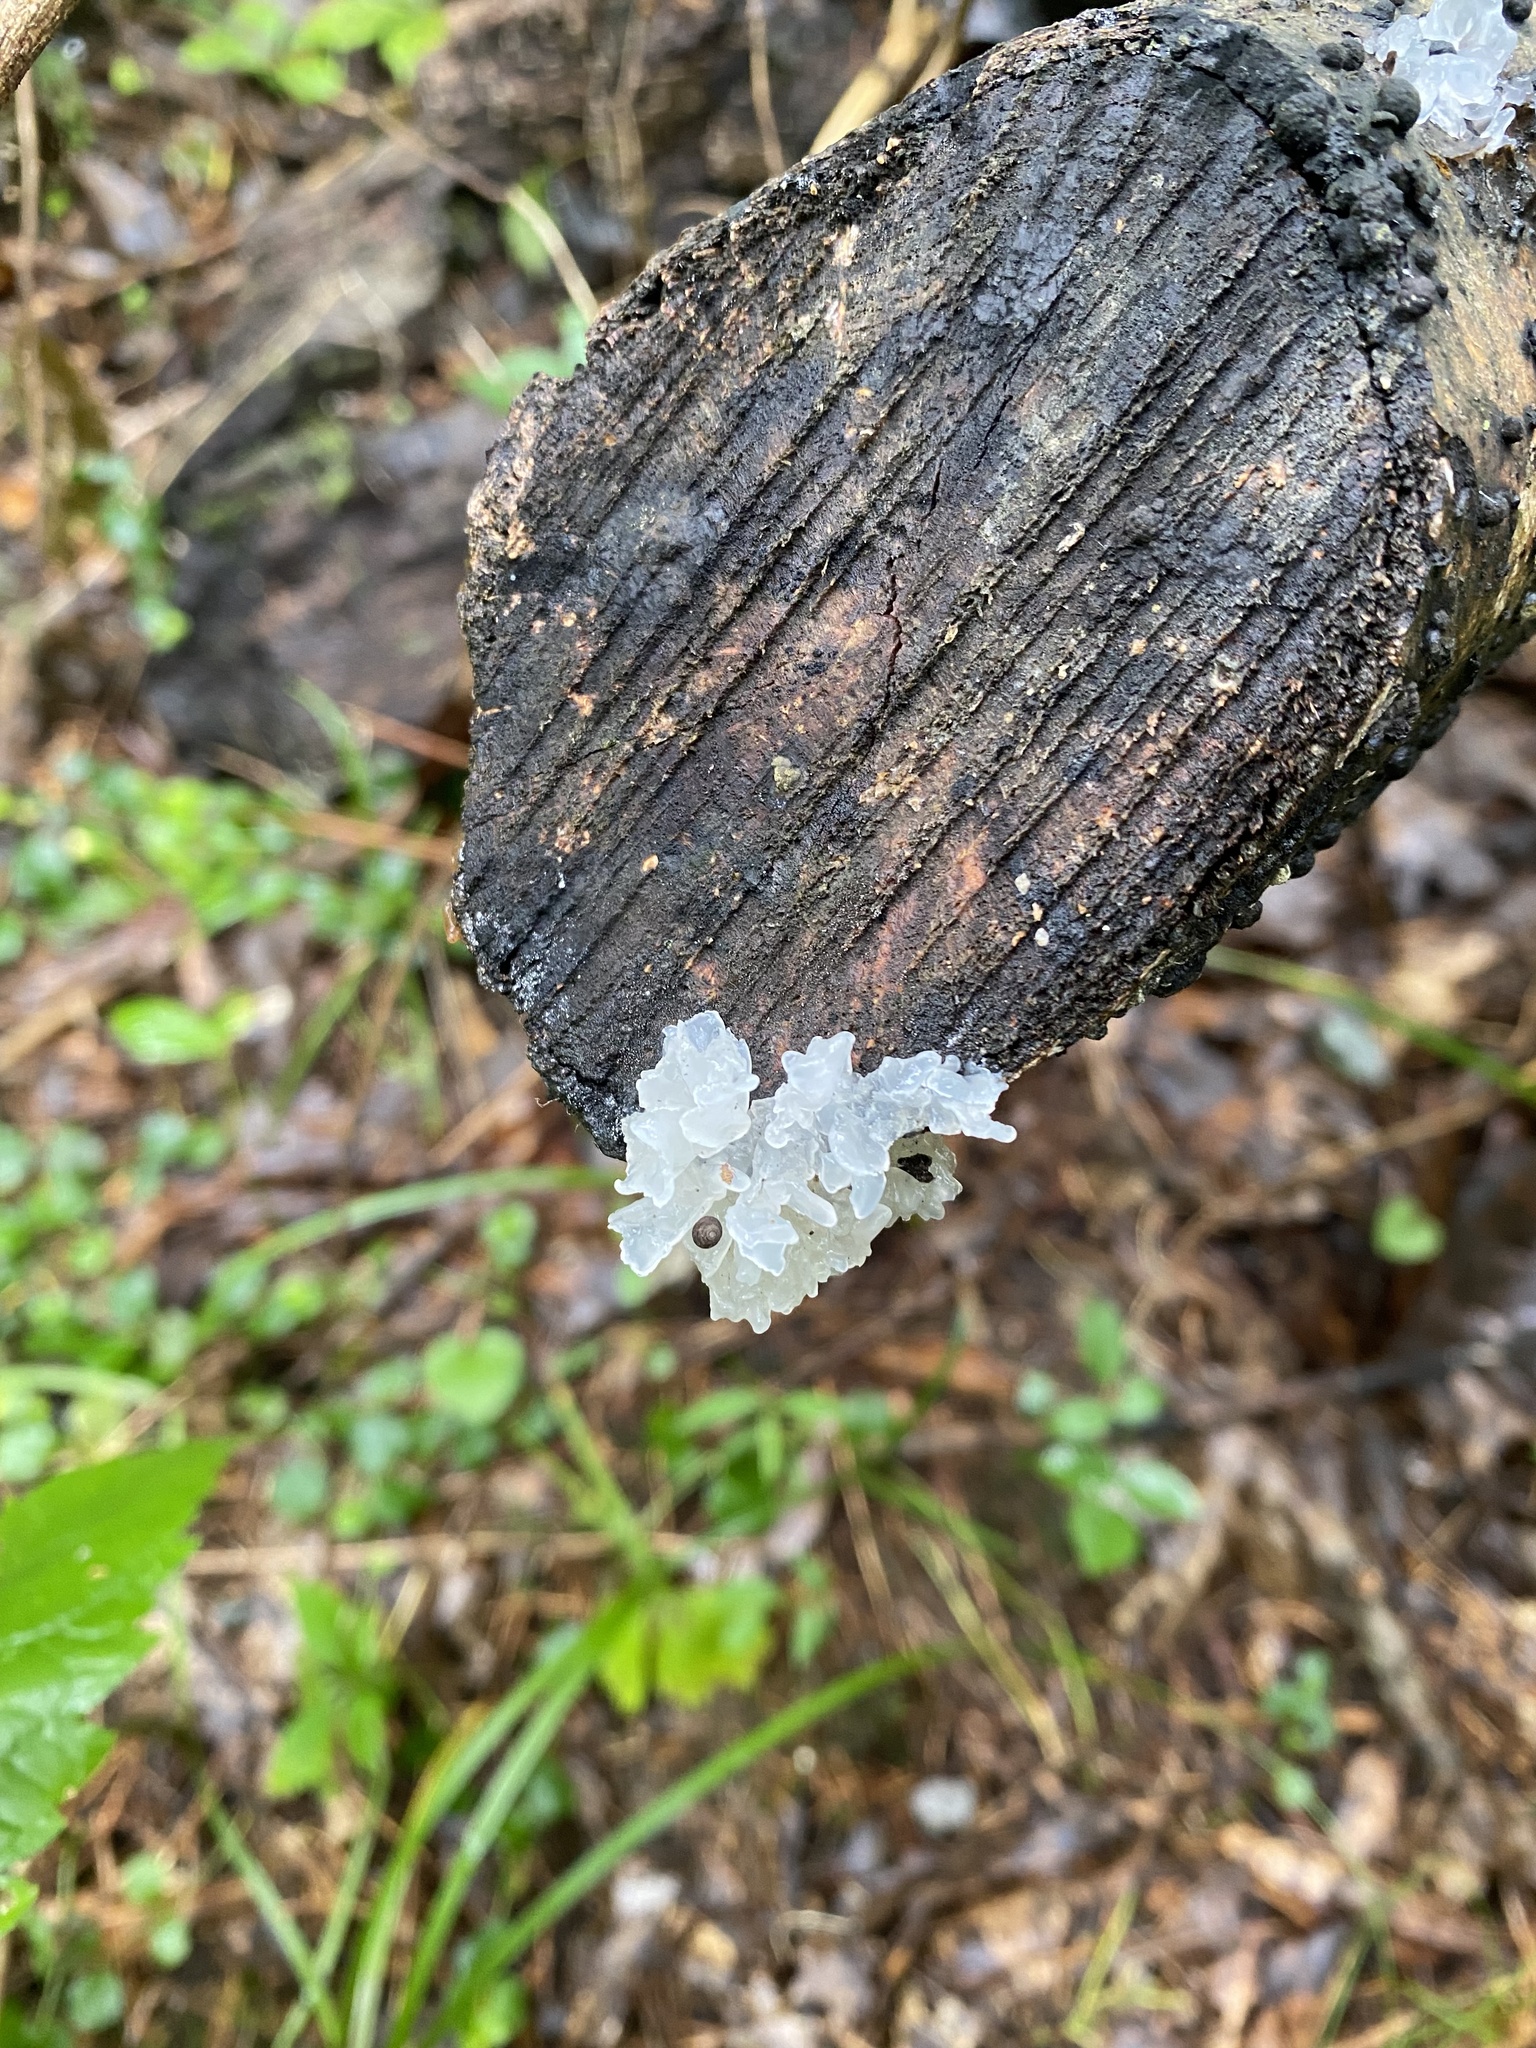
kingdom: Fungi
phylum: Basidiomycota
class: Tremellomycetes
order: Tremellales
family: Tremellaceae
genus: Tremella
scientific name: Tremella fuciformis
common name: Snow fungus
